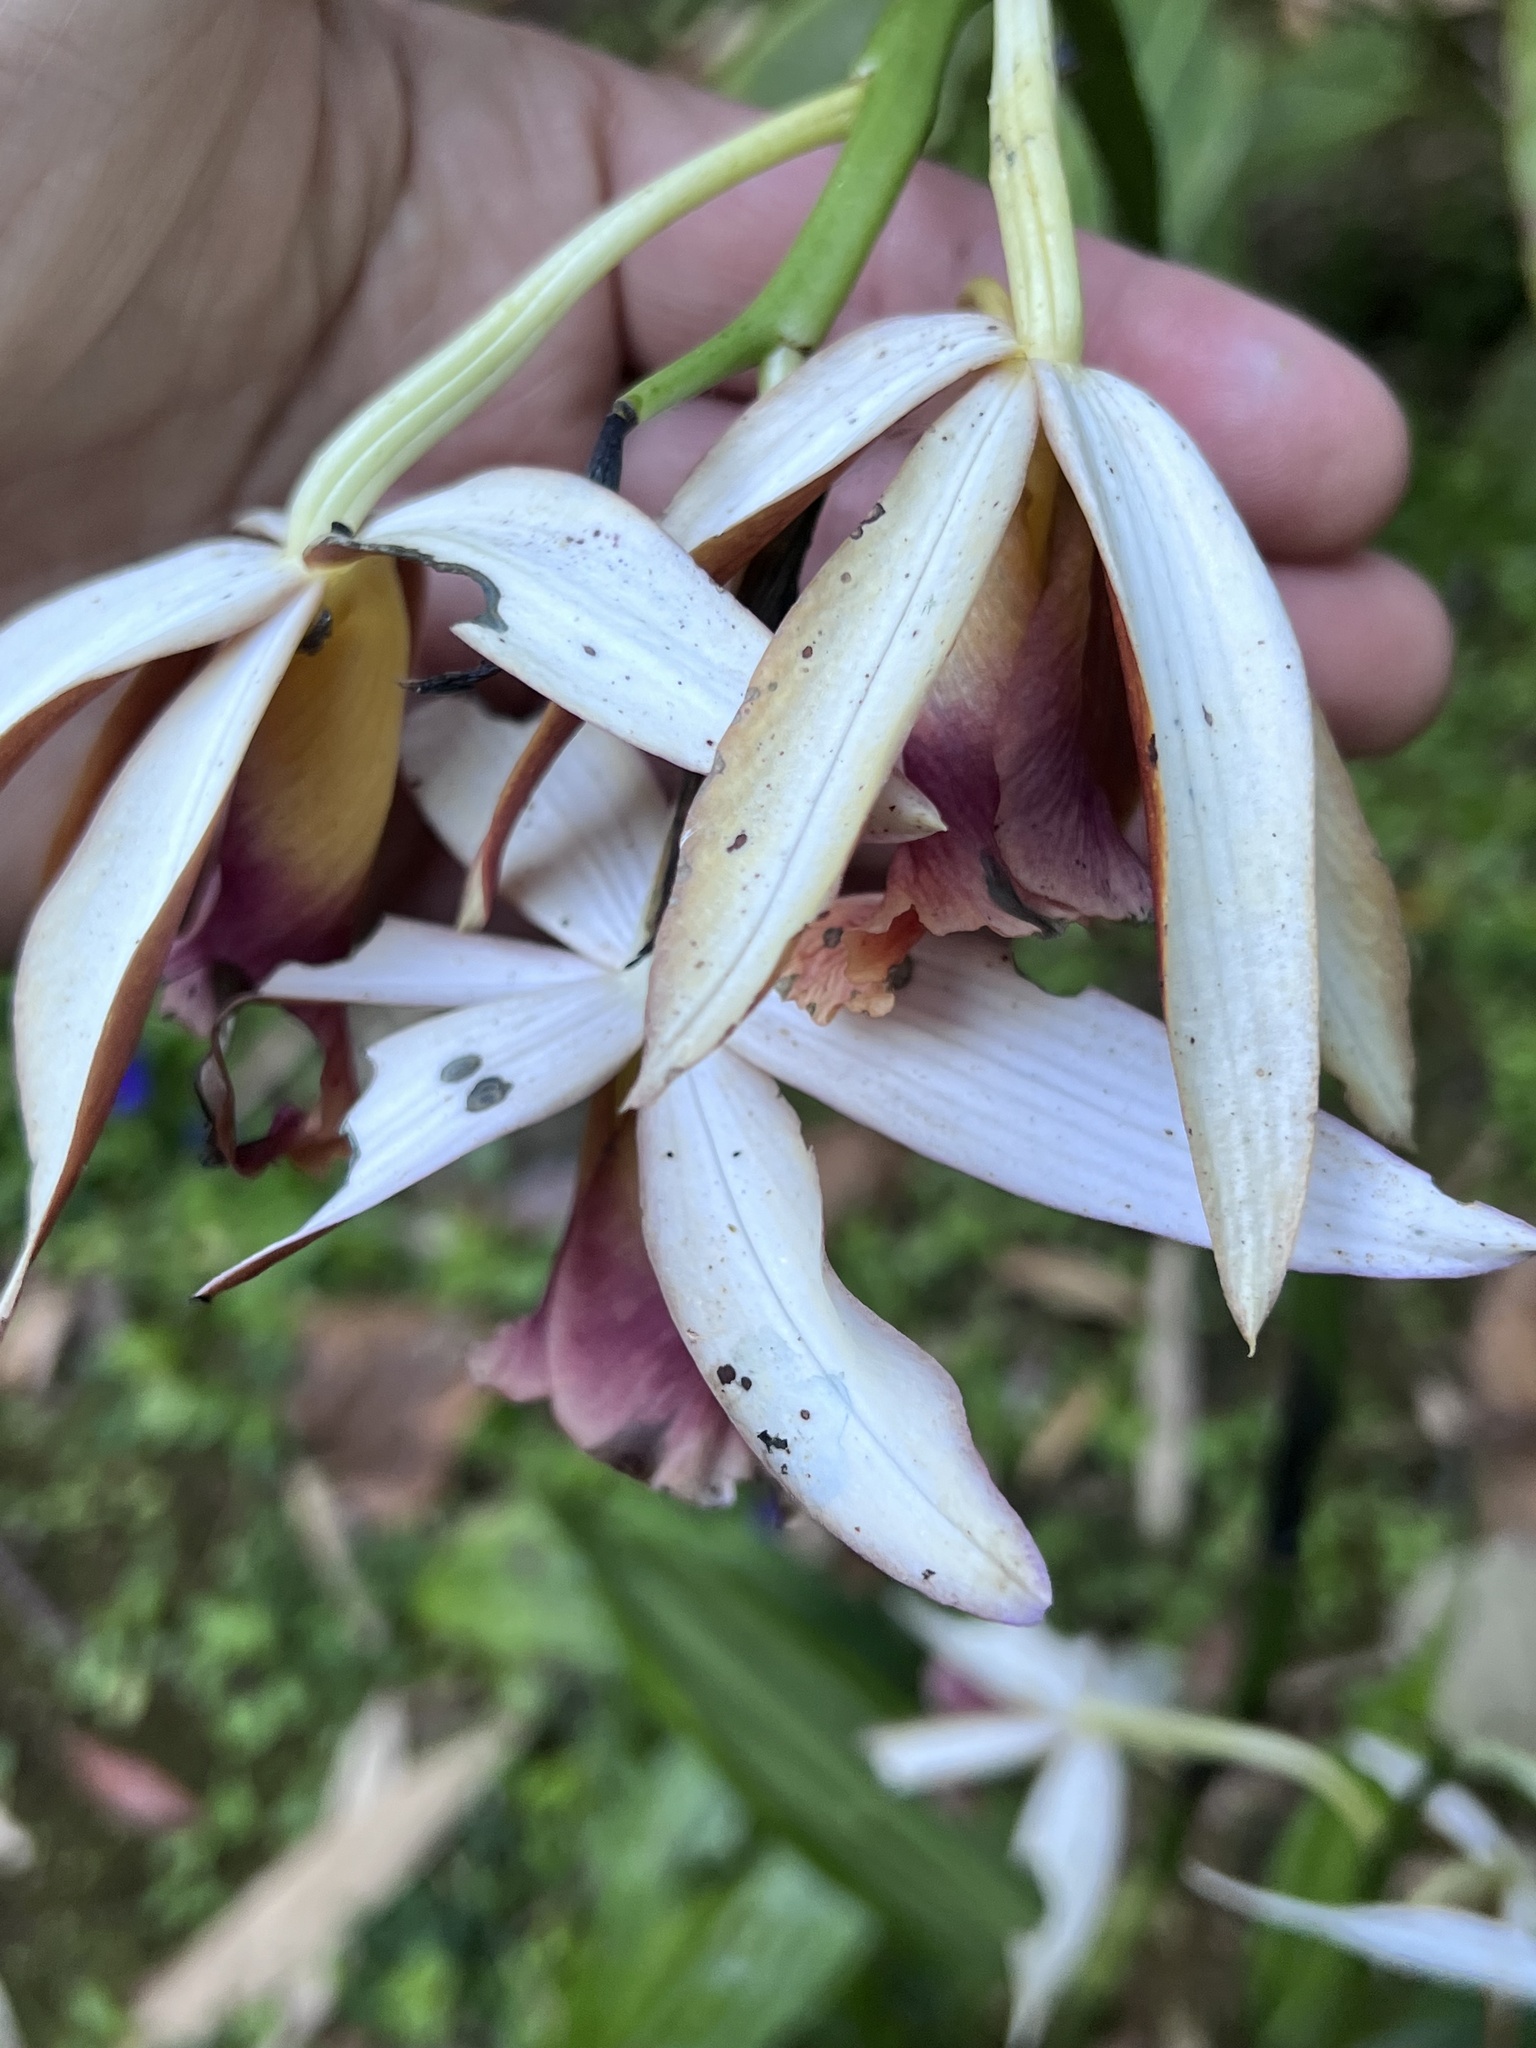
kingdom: Plantae
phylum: Tracheophyta
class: Liliopsida
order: Asparagales
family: Orchidaceae
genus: Calanthe
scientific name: Calanthe tankervilleae
